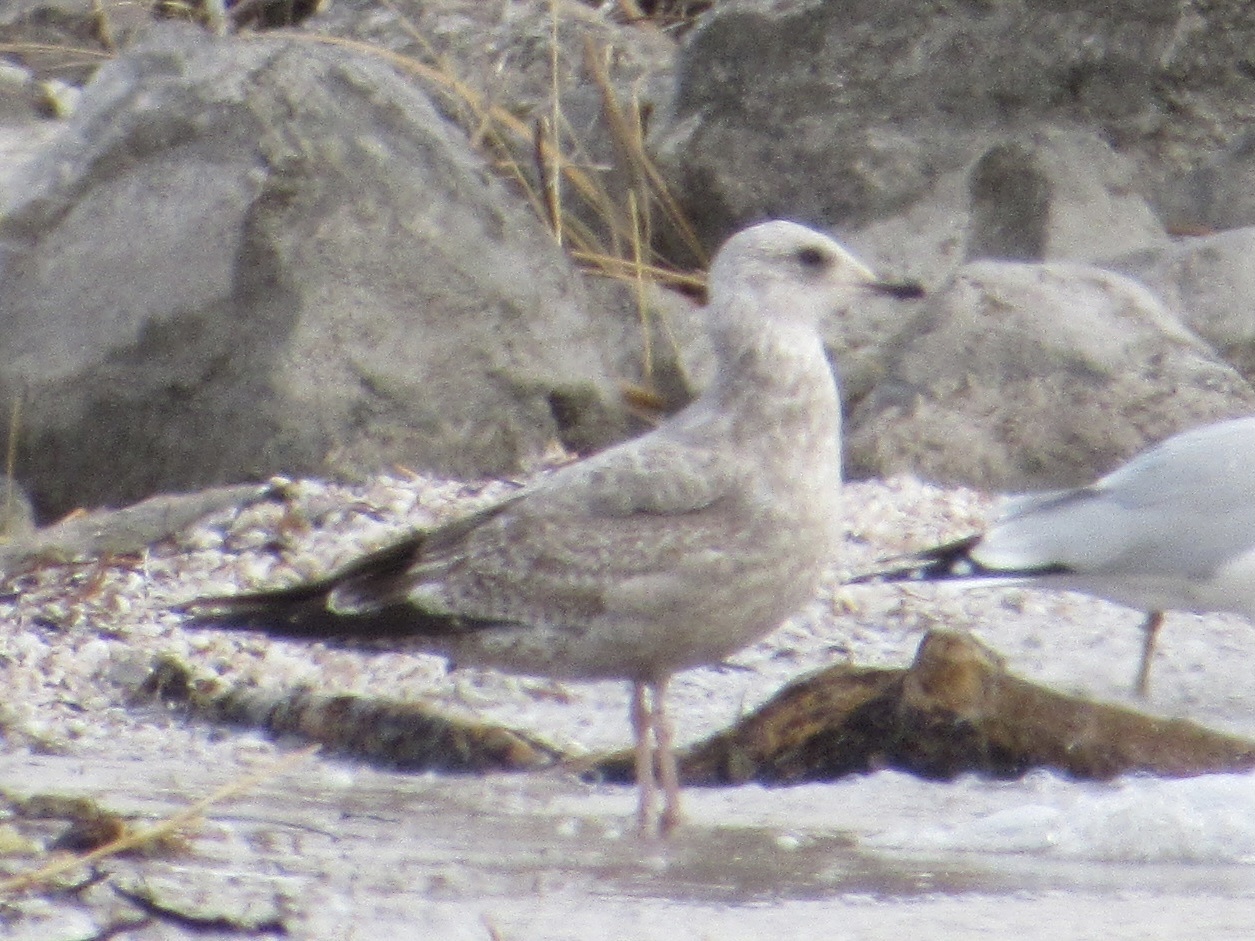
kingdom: Animalia
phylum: Chordata
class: Aves
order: Charadriiformes
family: Laridae
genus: Larus
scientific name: Larus argentatus
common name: Herring gull
